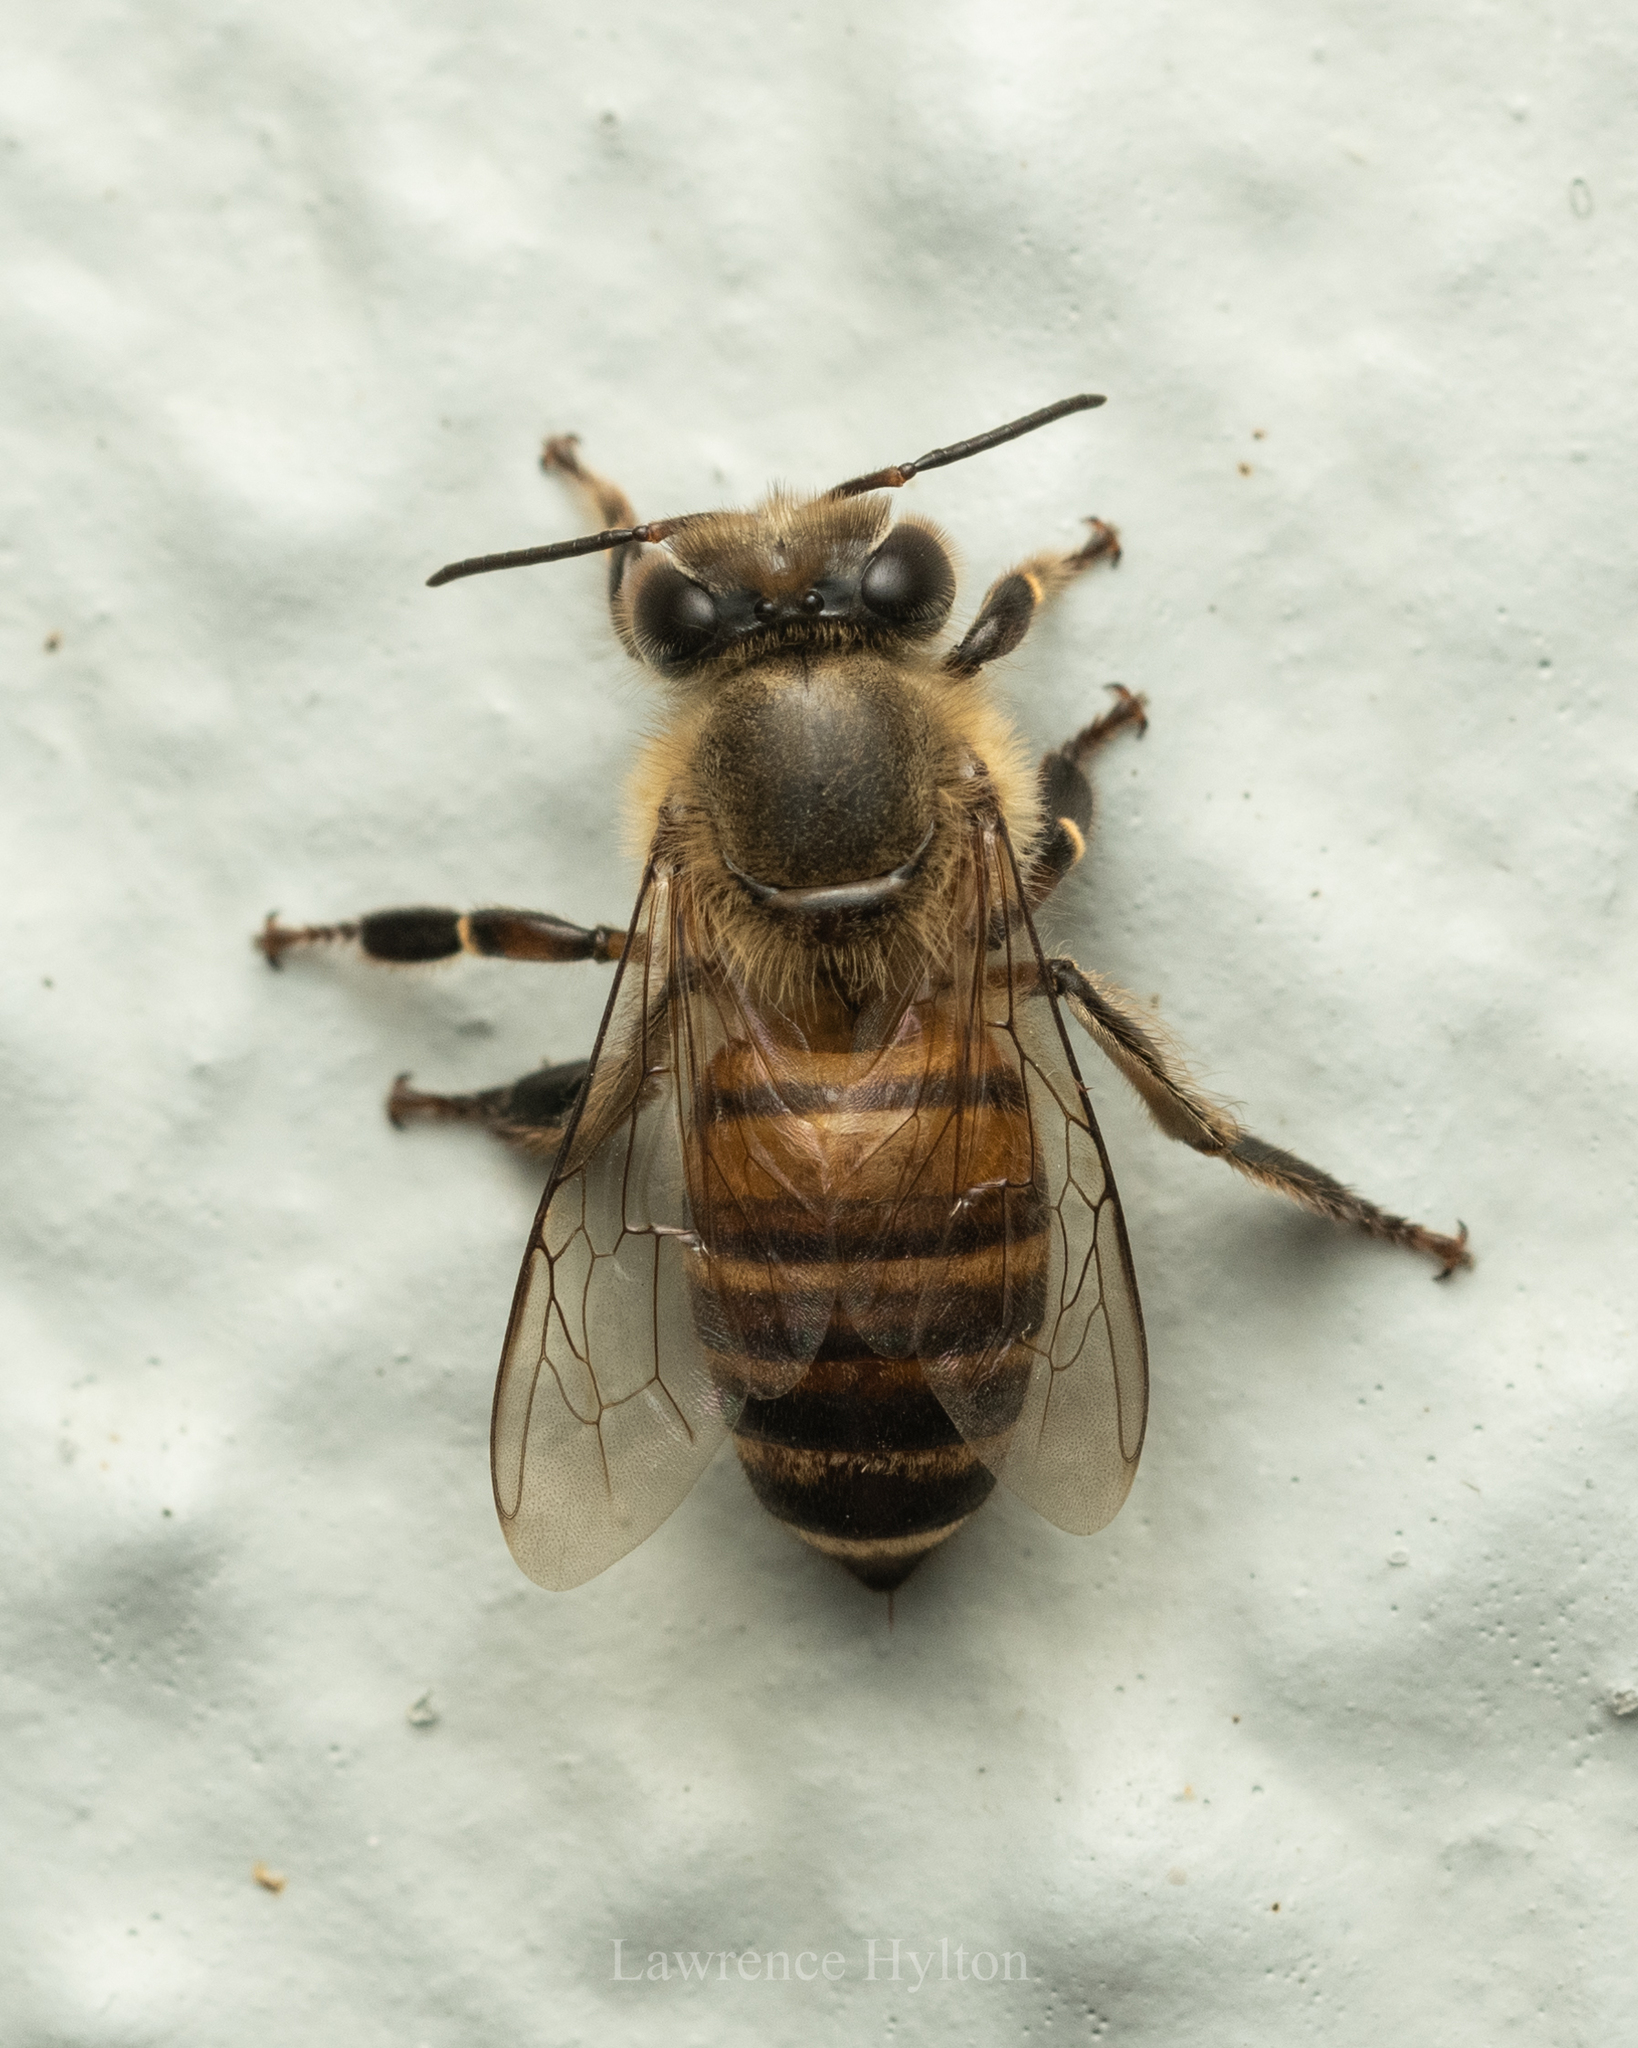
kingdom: Animalia
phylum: Arthropoda
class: Insecta
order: Hymenoptera
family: Apidae
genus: Apis
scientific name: Apis cerana
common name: Honey bee
